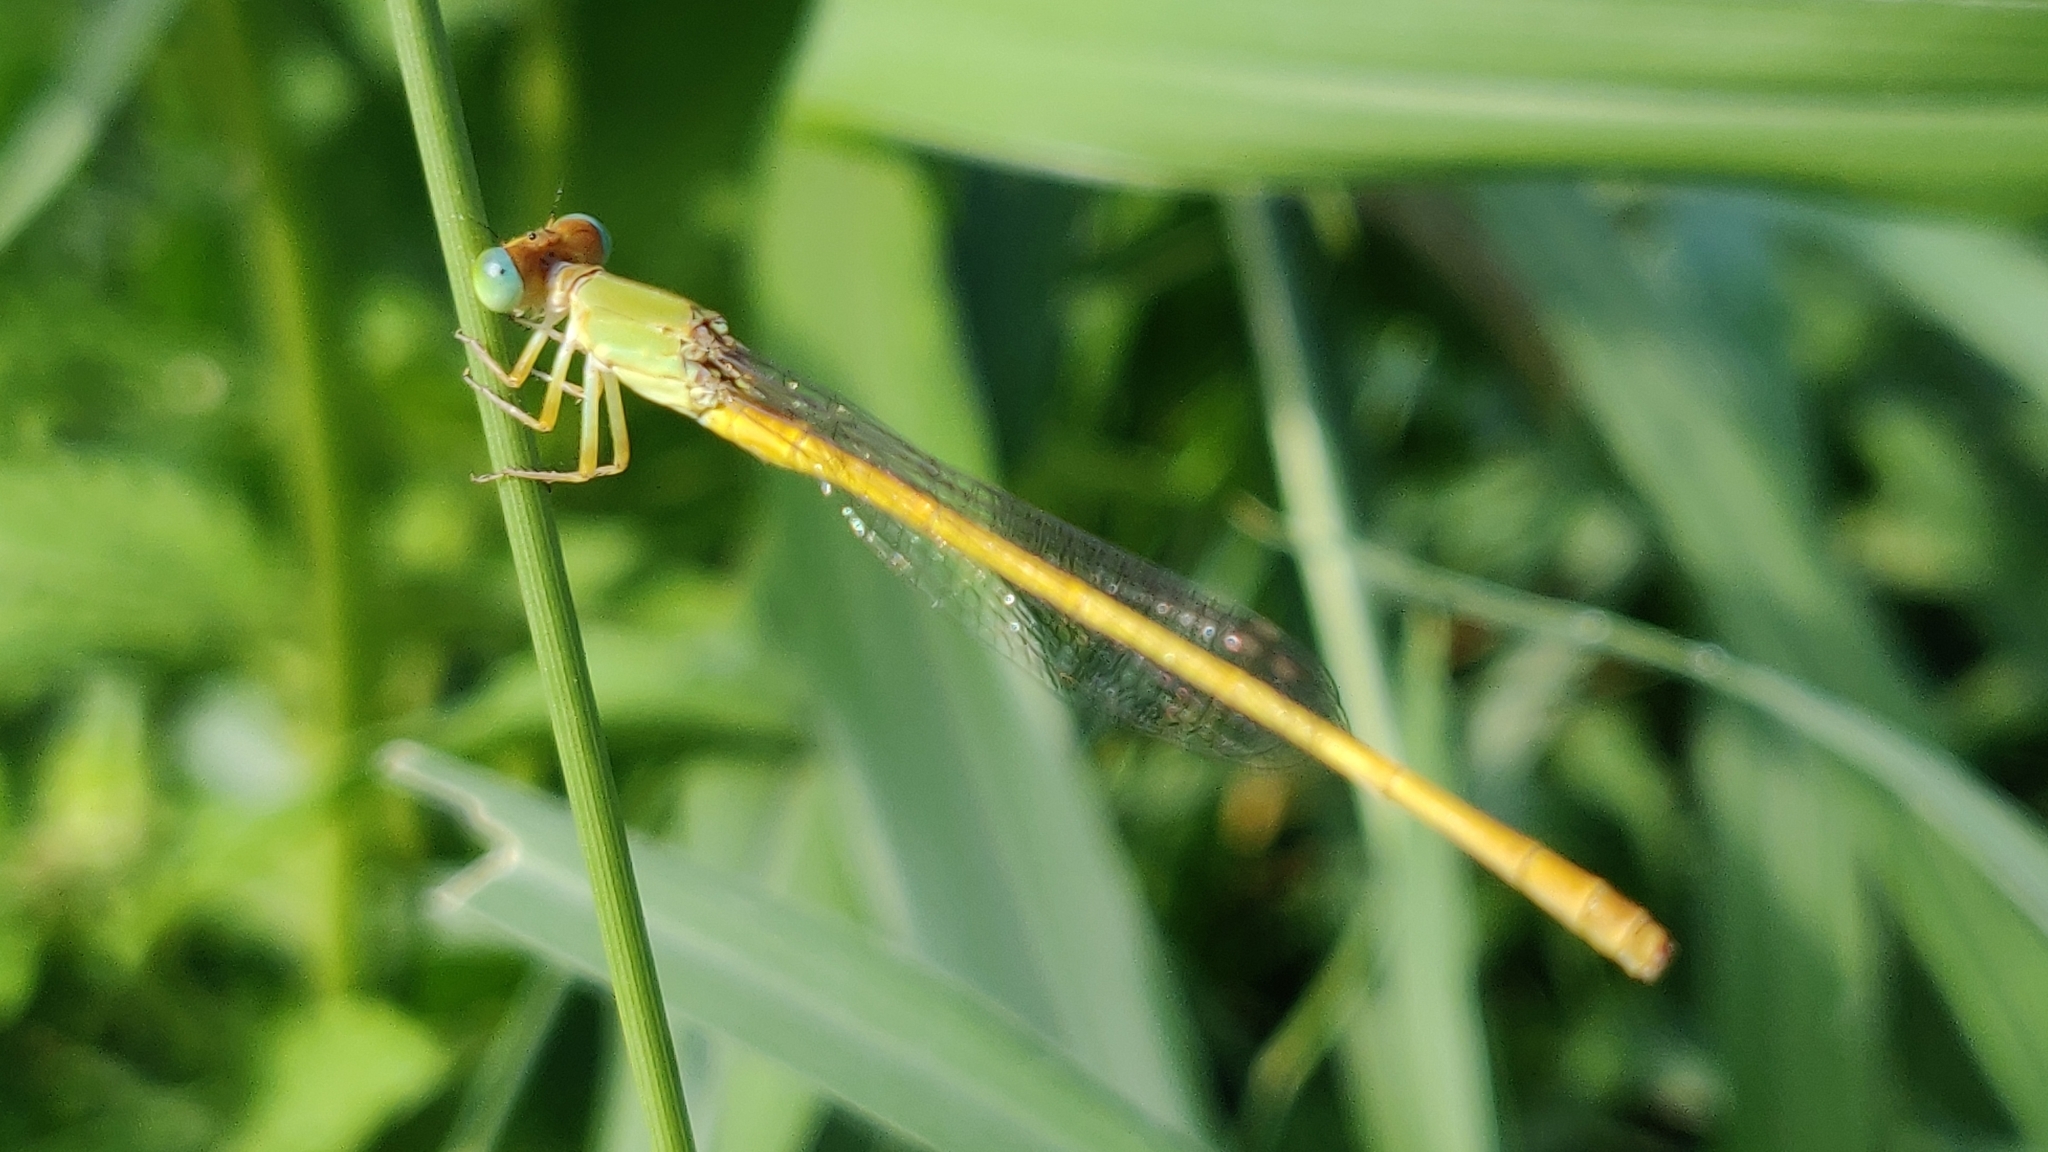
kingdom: Animalia
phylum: Arthropoda
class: Insecta
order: Odonata
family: Coenagrionidae
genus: Ceriagrion
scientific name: Ceriagrion coromandelianum
